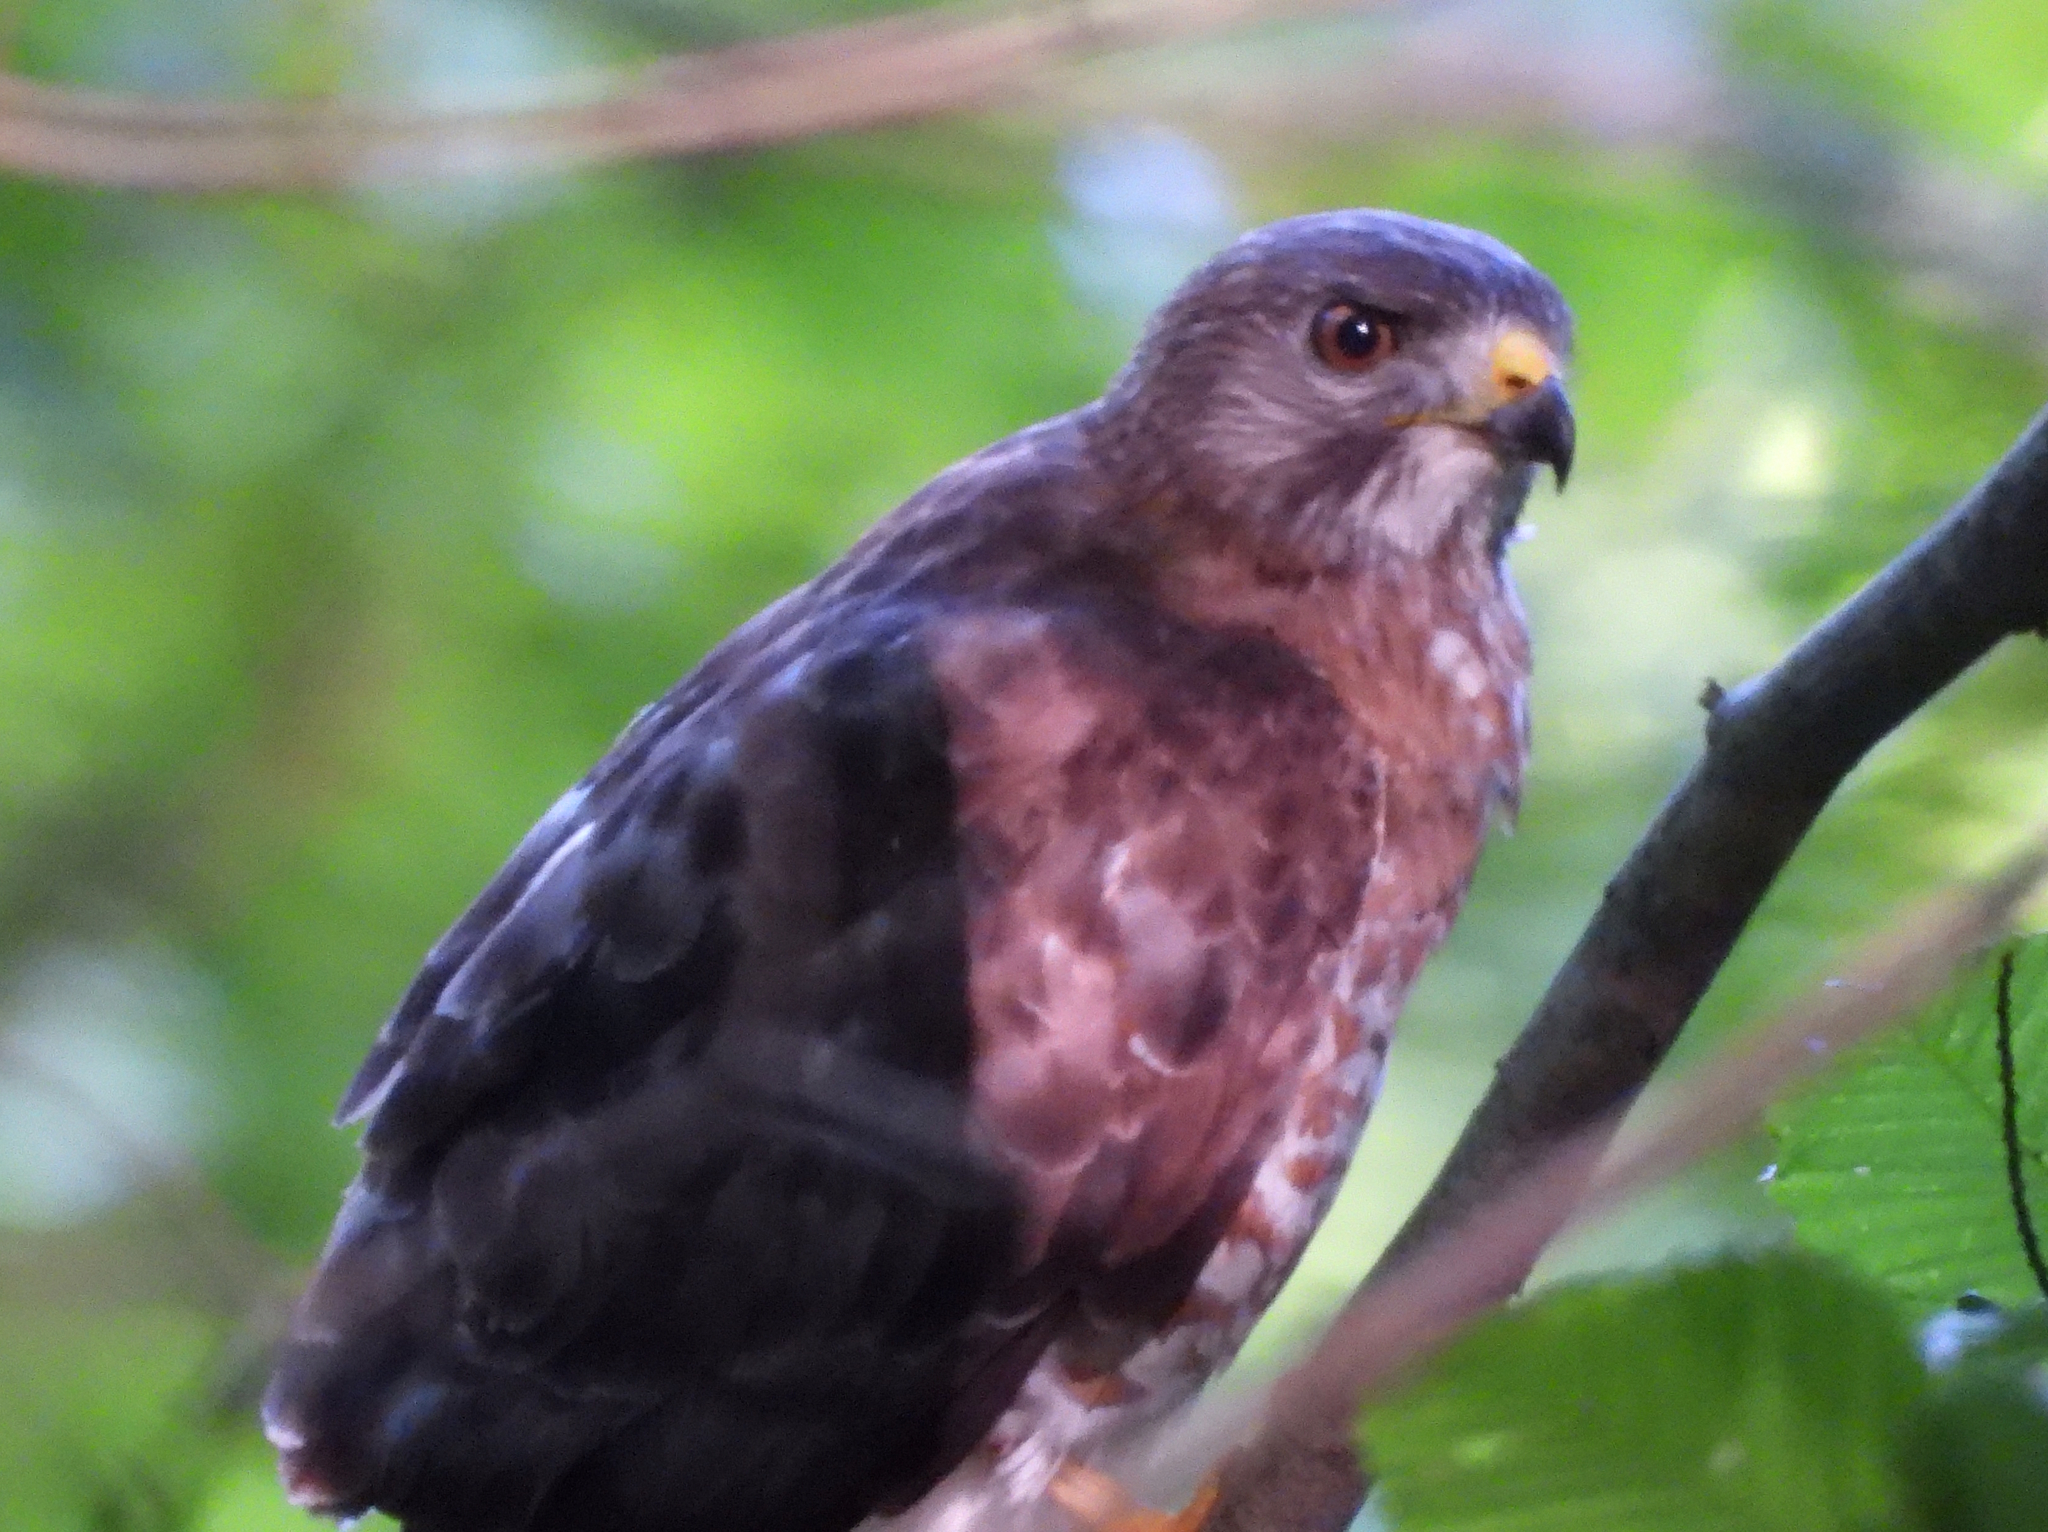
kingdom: Animalia
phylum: Chordata
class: Aves
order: Accipitriformes
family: Accipitridae
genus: Buteo
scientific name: Buteo platypterus
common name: Broad-winged hawk
